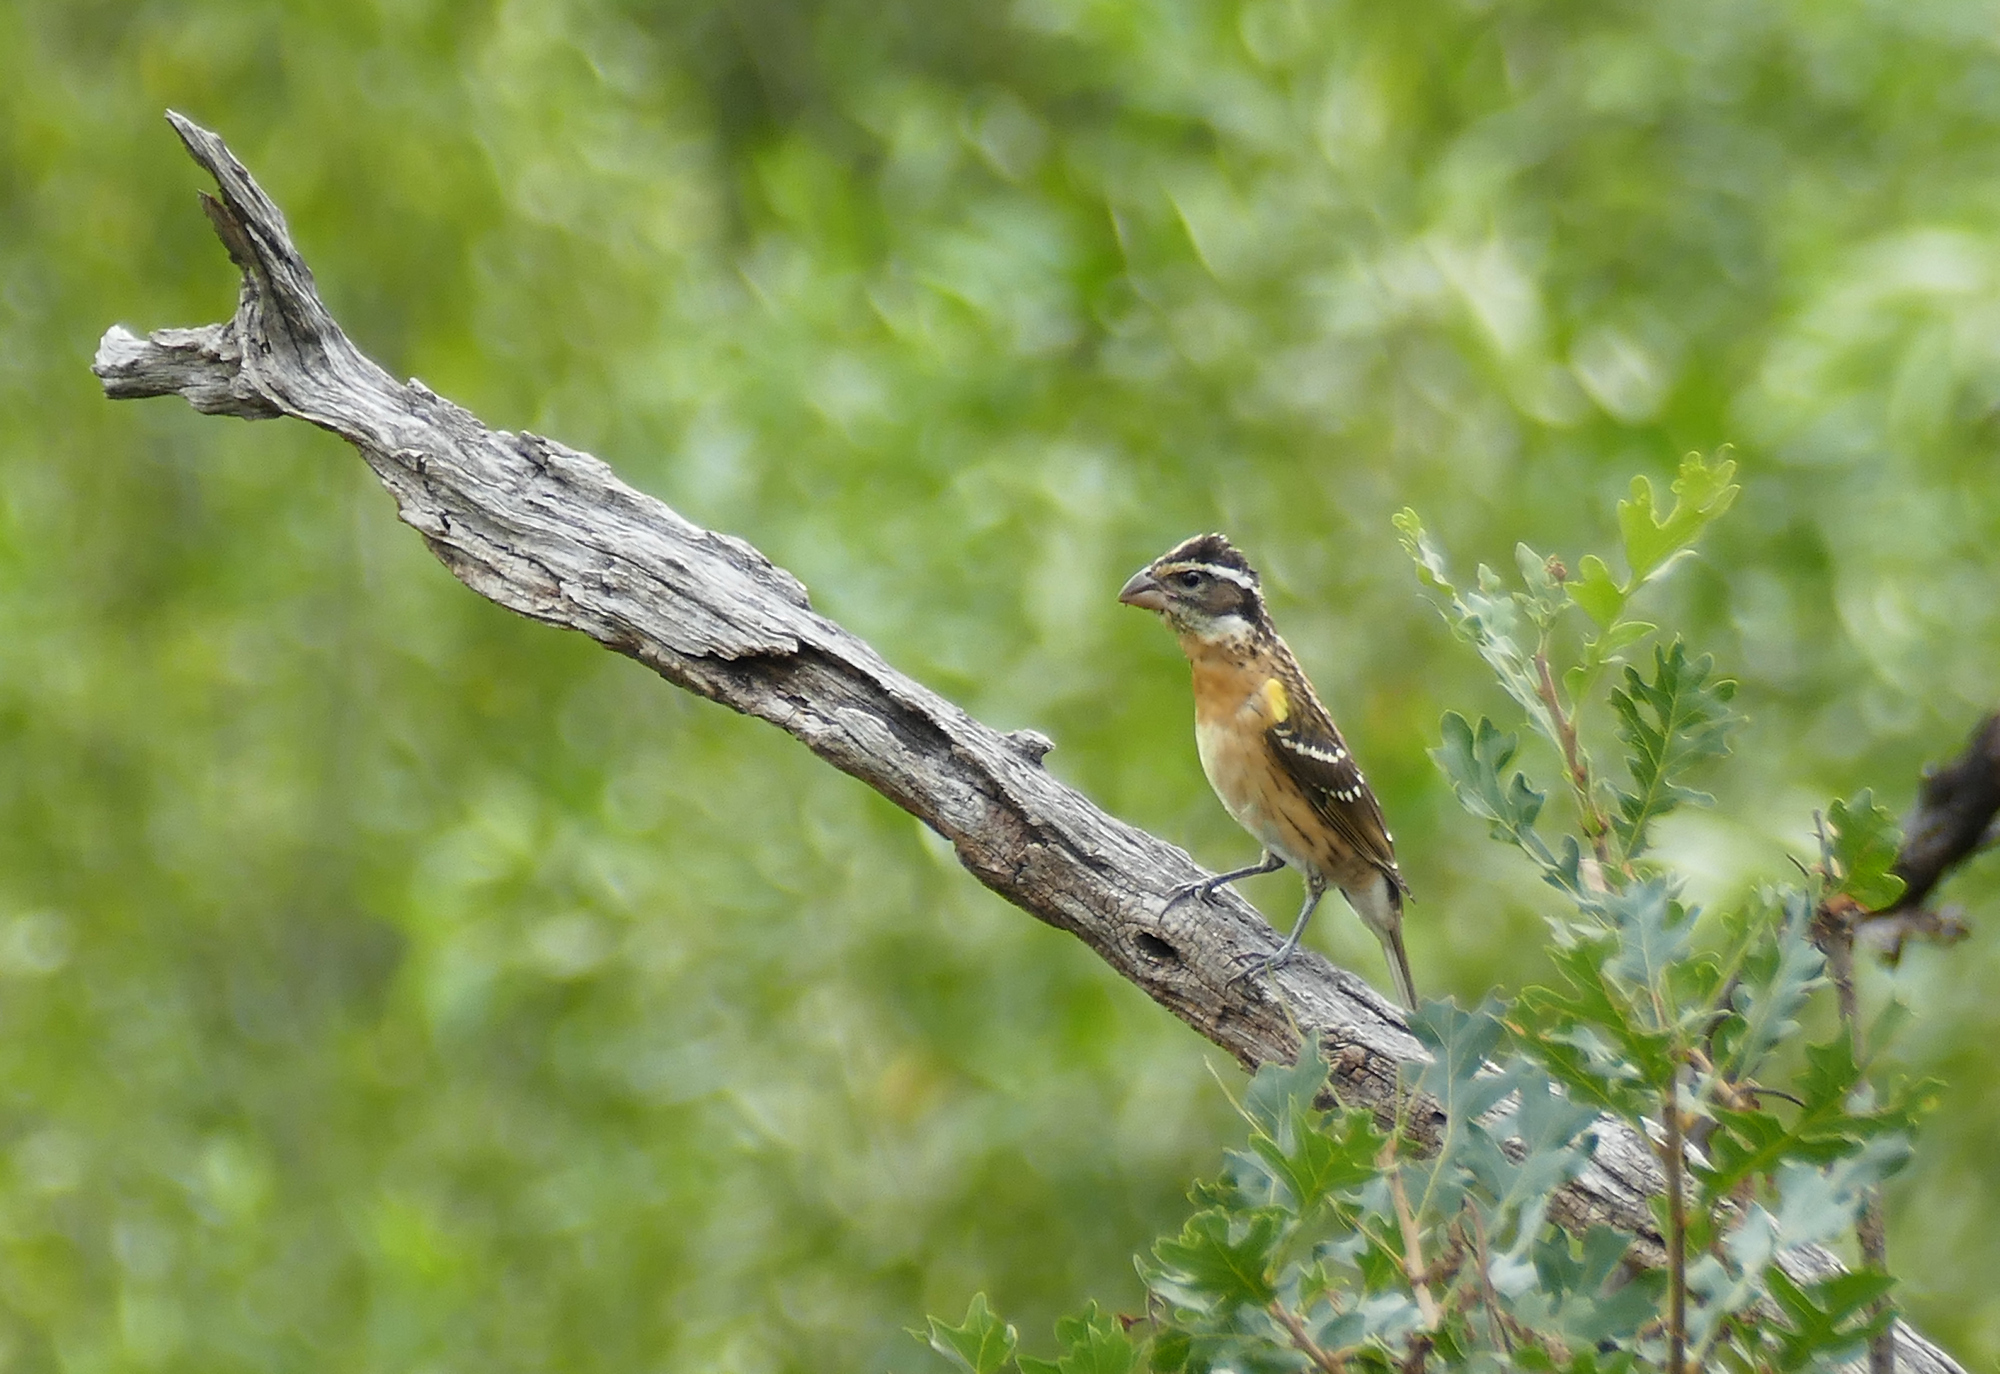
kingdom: Animalia
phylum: Chordata
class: Aves
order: Passeriformes
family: Cardinalidae
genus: Pheucticus
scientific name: Pheucticus melanocephalus
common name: Black-headed grosbeak
